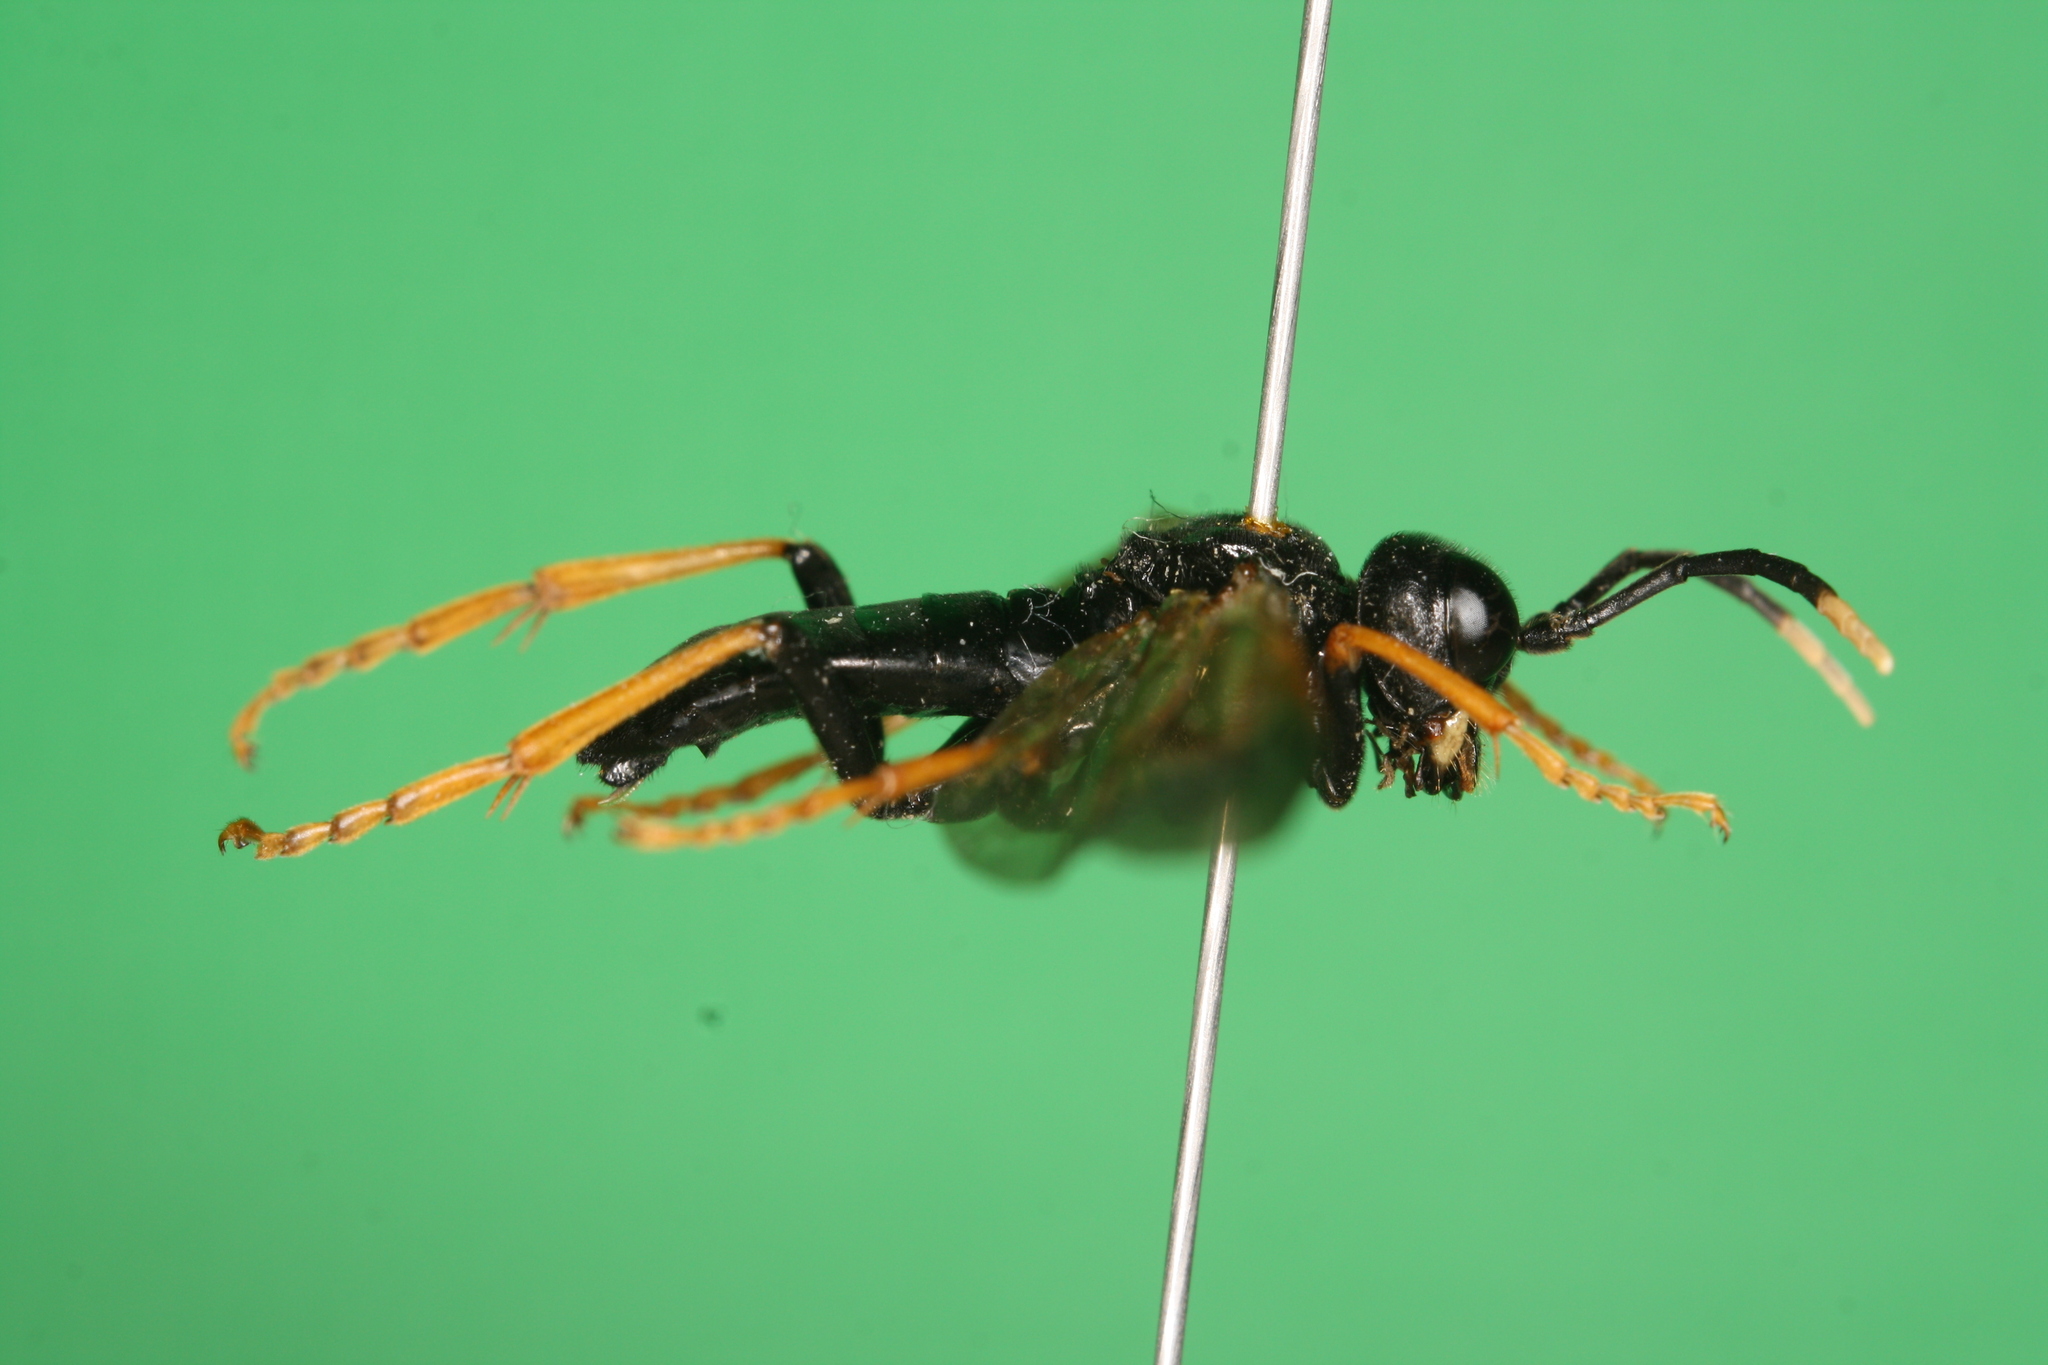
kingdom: Animalia
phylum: Arthropoda
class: Insecta
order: Hymenoptera
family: Tenthredinidae
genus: Tenthredo
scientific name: Tenthredo crassa
